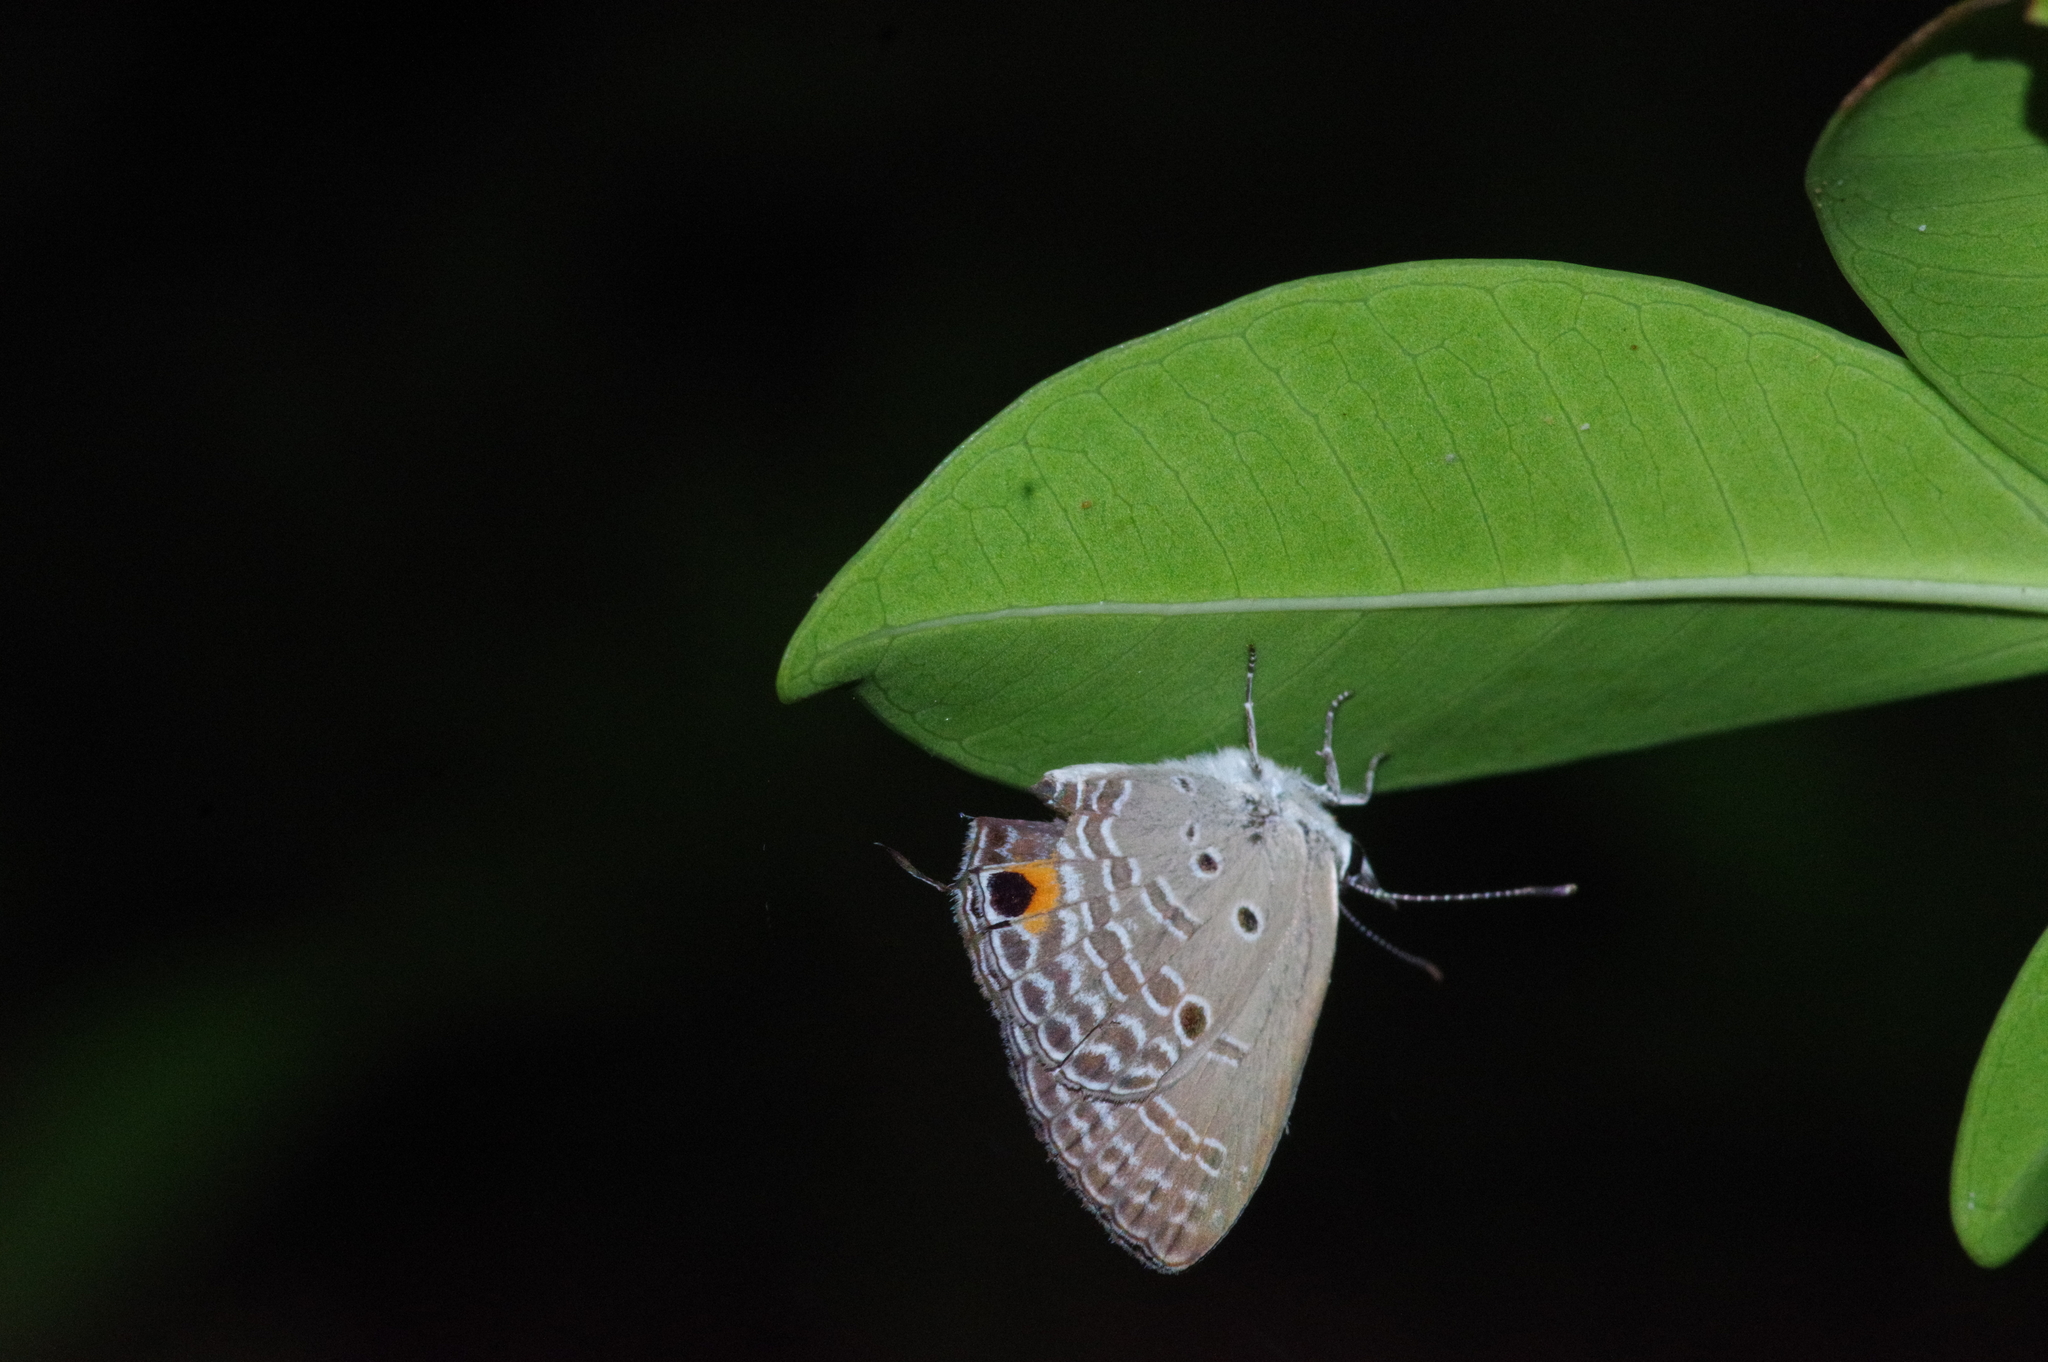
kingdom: Animalia
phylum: Arthropoda
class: Insecta
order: Lepidoptera
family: Lycaenidae
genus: Luthrodes
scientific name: Luthrodes pandava
